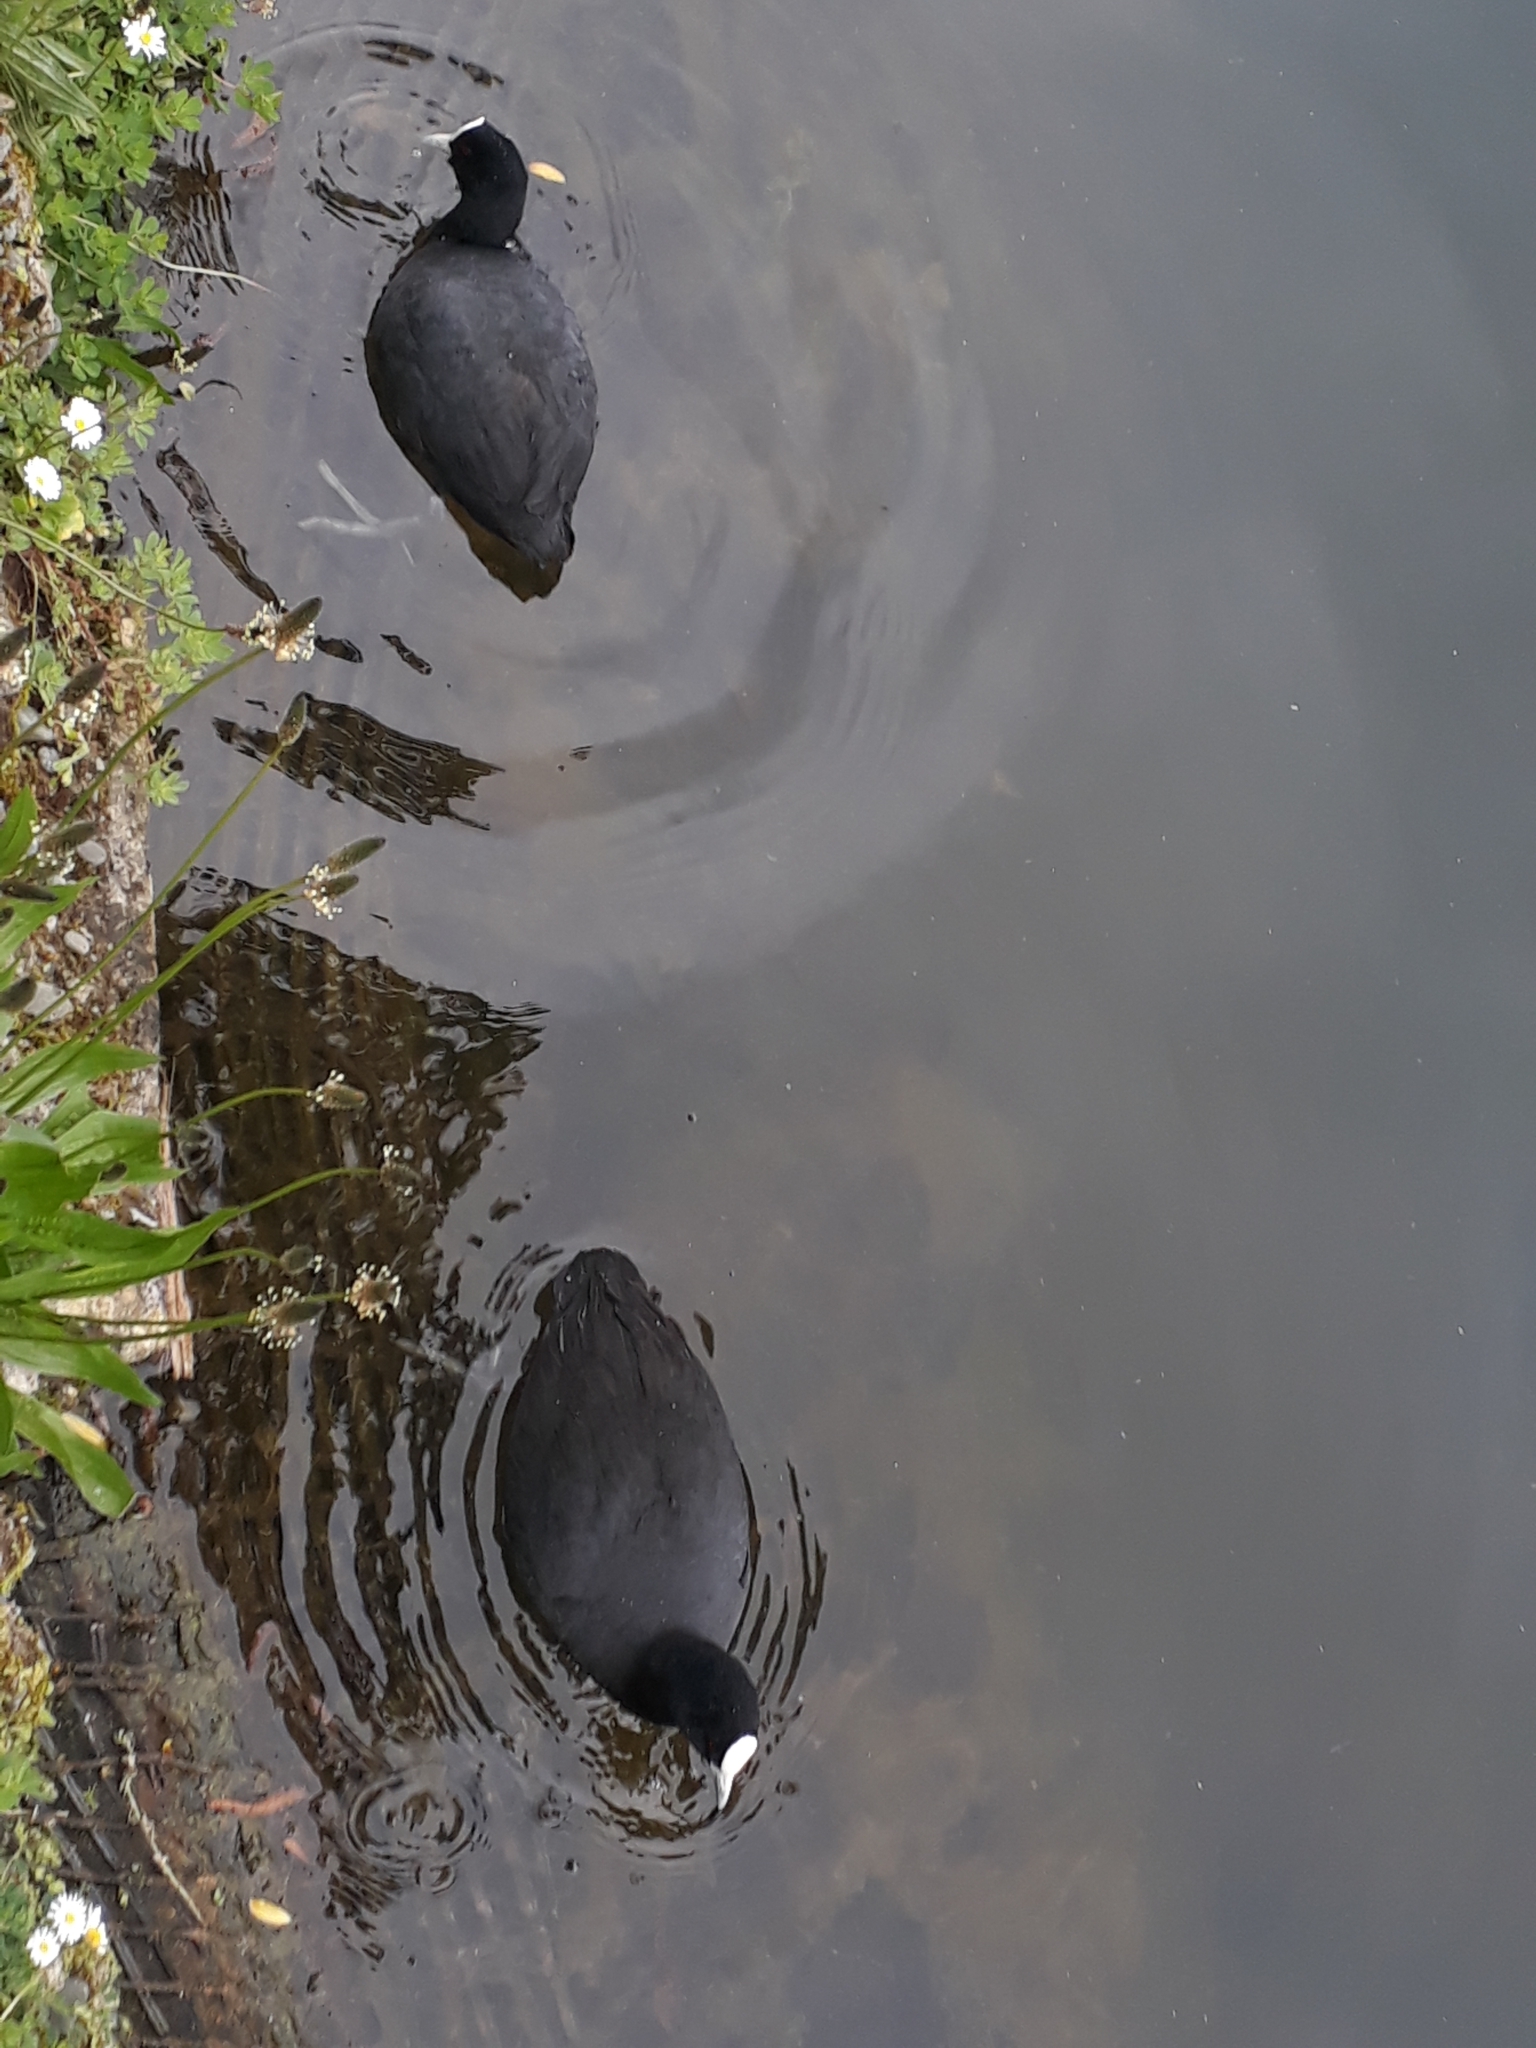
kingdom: Animalia
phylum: Chordata
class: Aves
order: Gruiformes
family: Rallidae
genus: Fulica
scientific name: Fulica atra
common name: Eurasian coot
